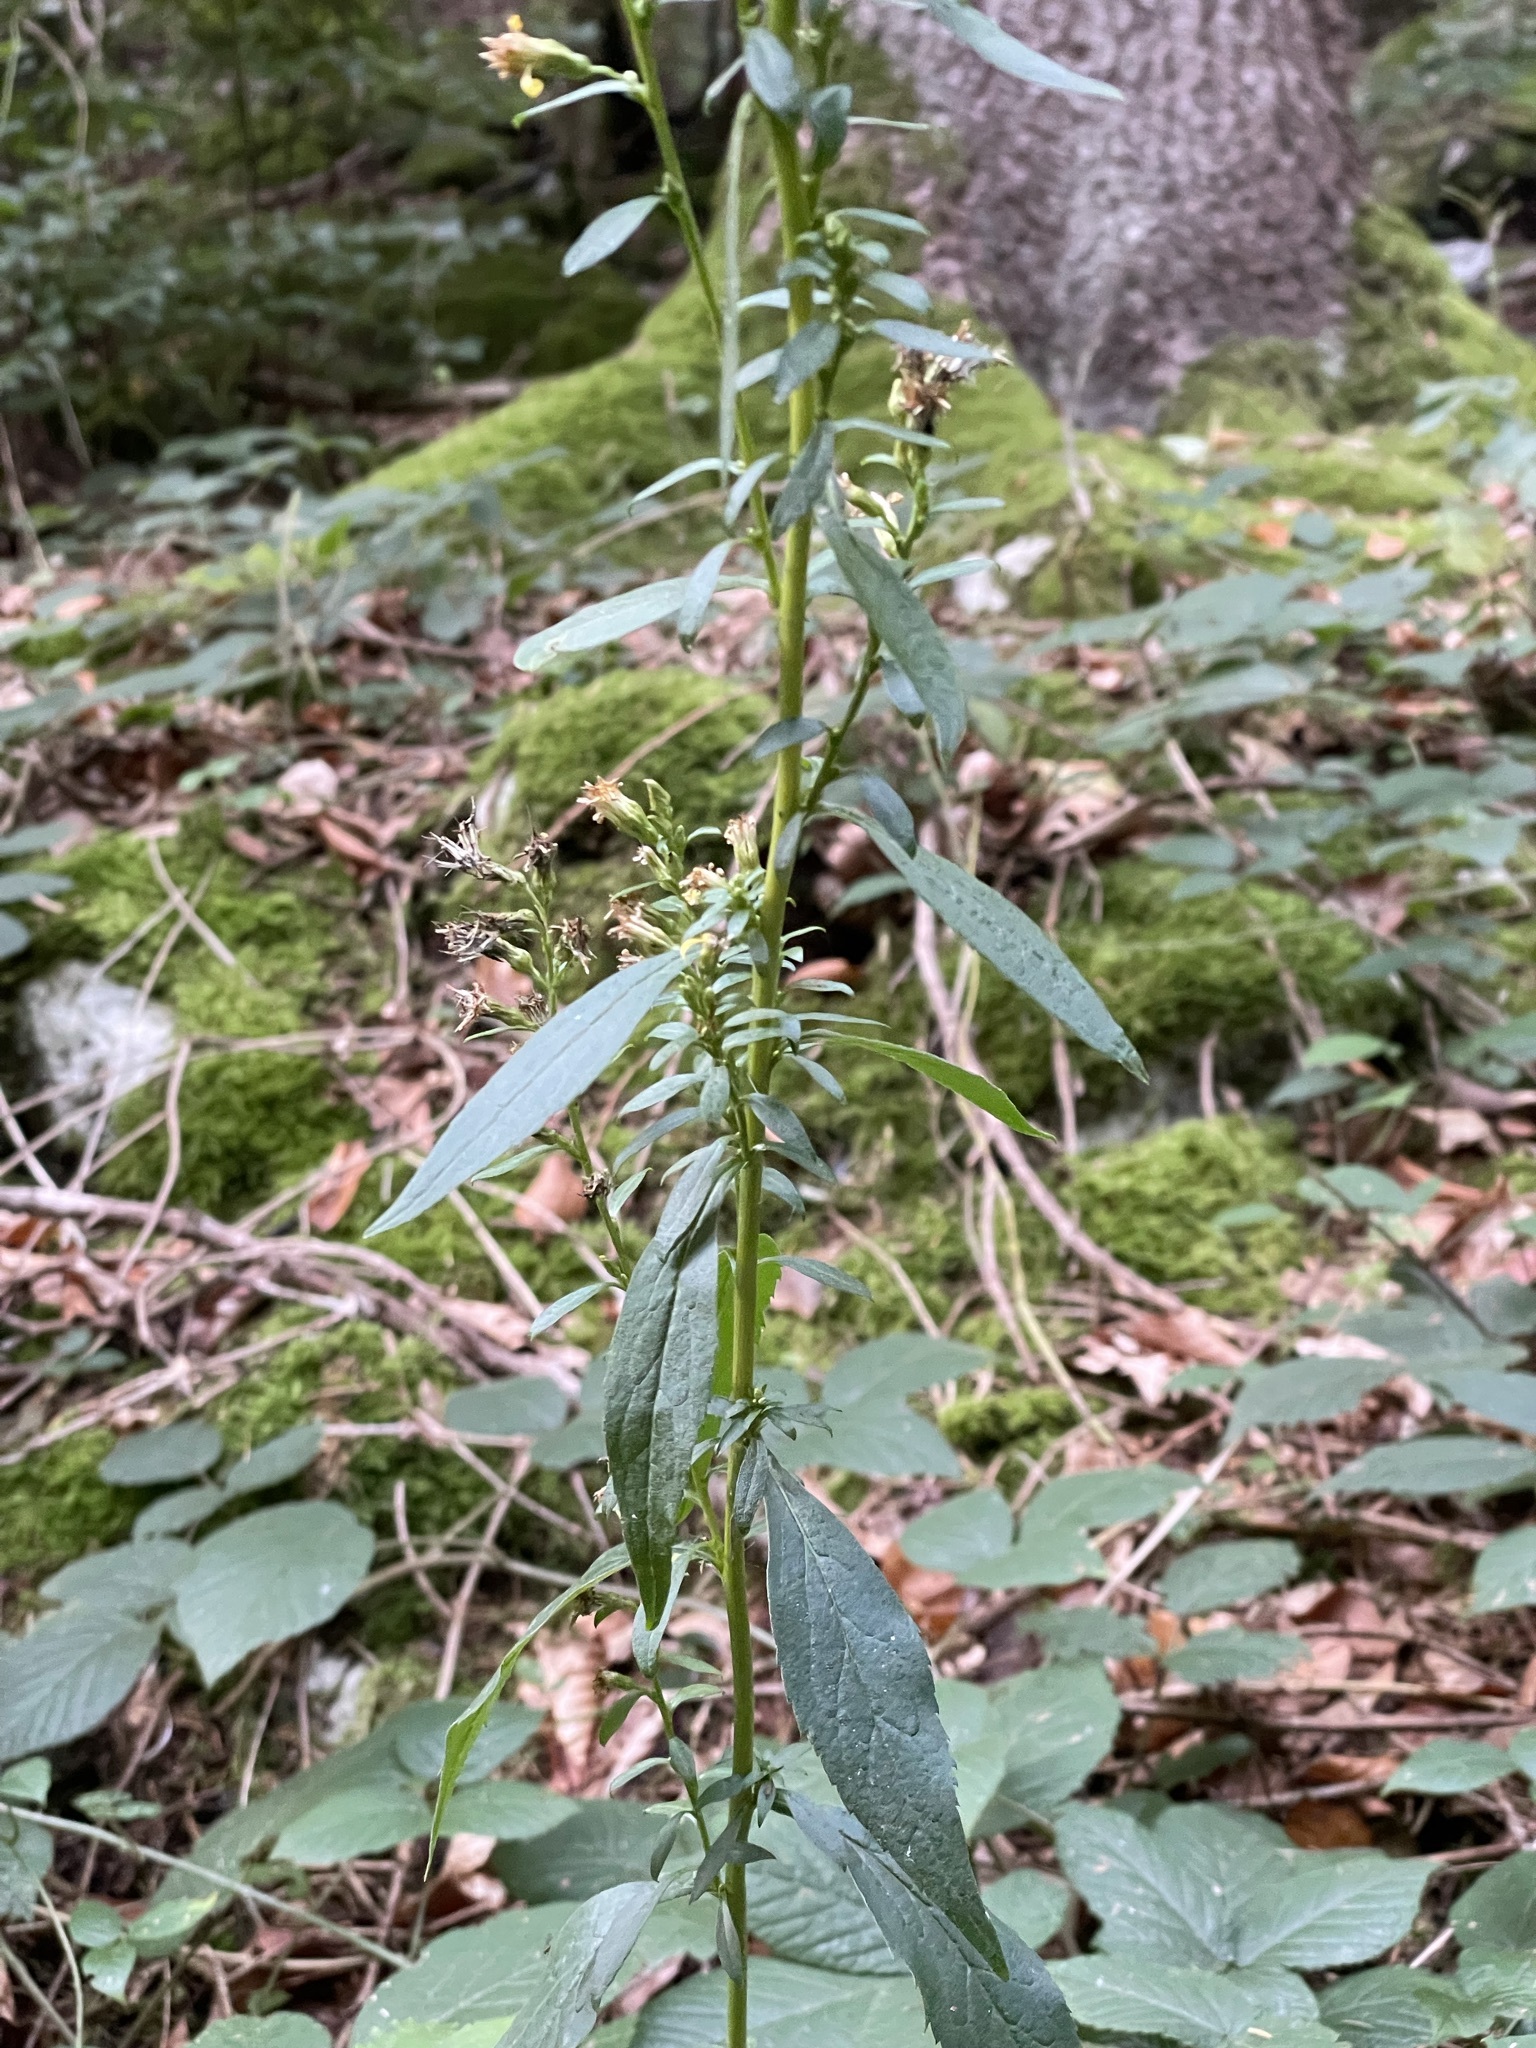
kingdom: Plantae
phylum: Tracheophyta
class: Magnoliopsida
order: Asterales
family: Asteraceae
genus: Solidago
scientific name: Solidago virgaurea
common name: Goldenrod
